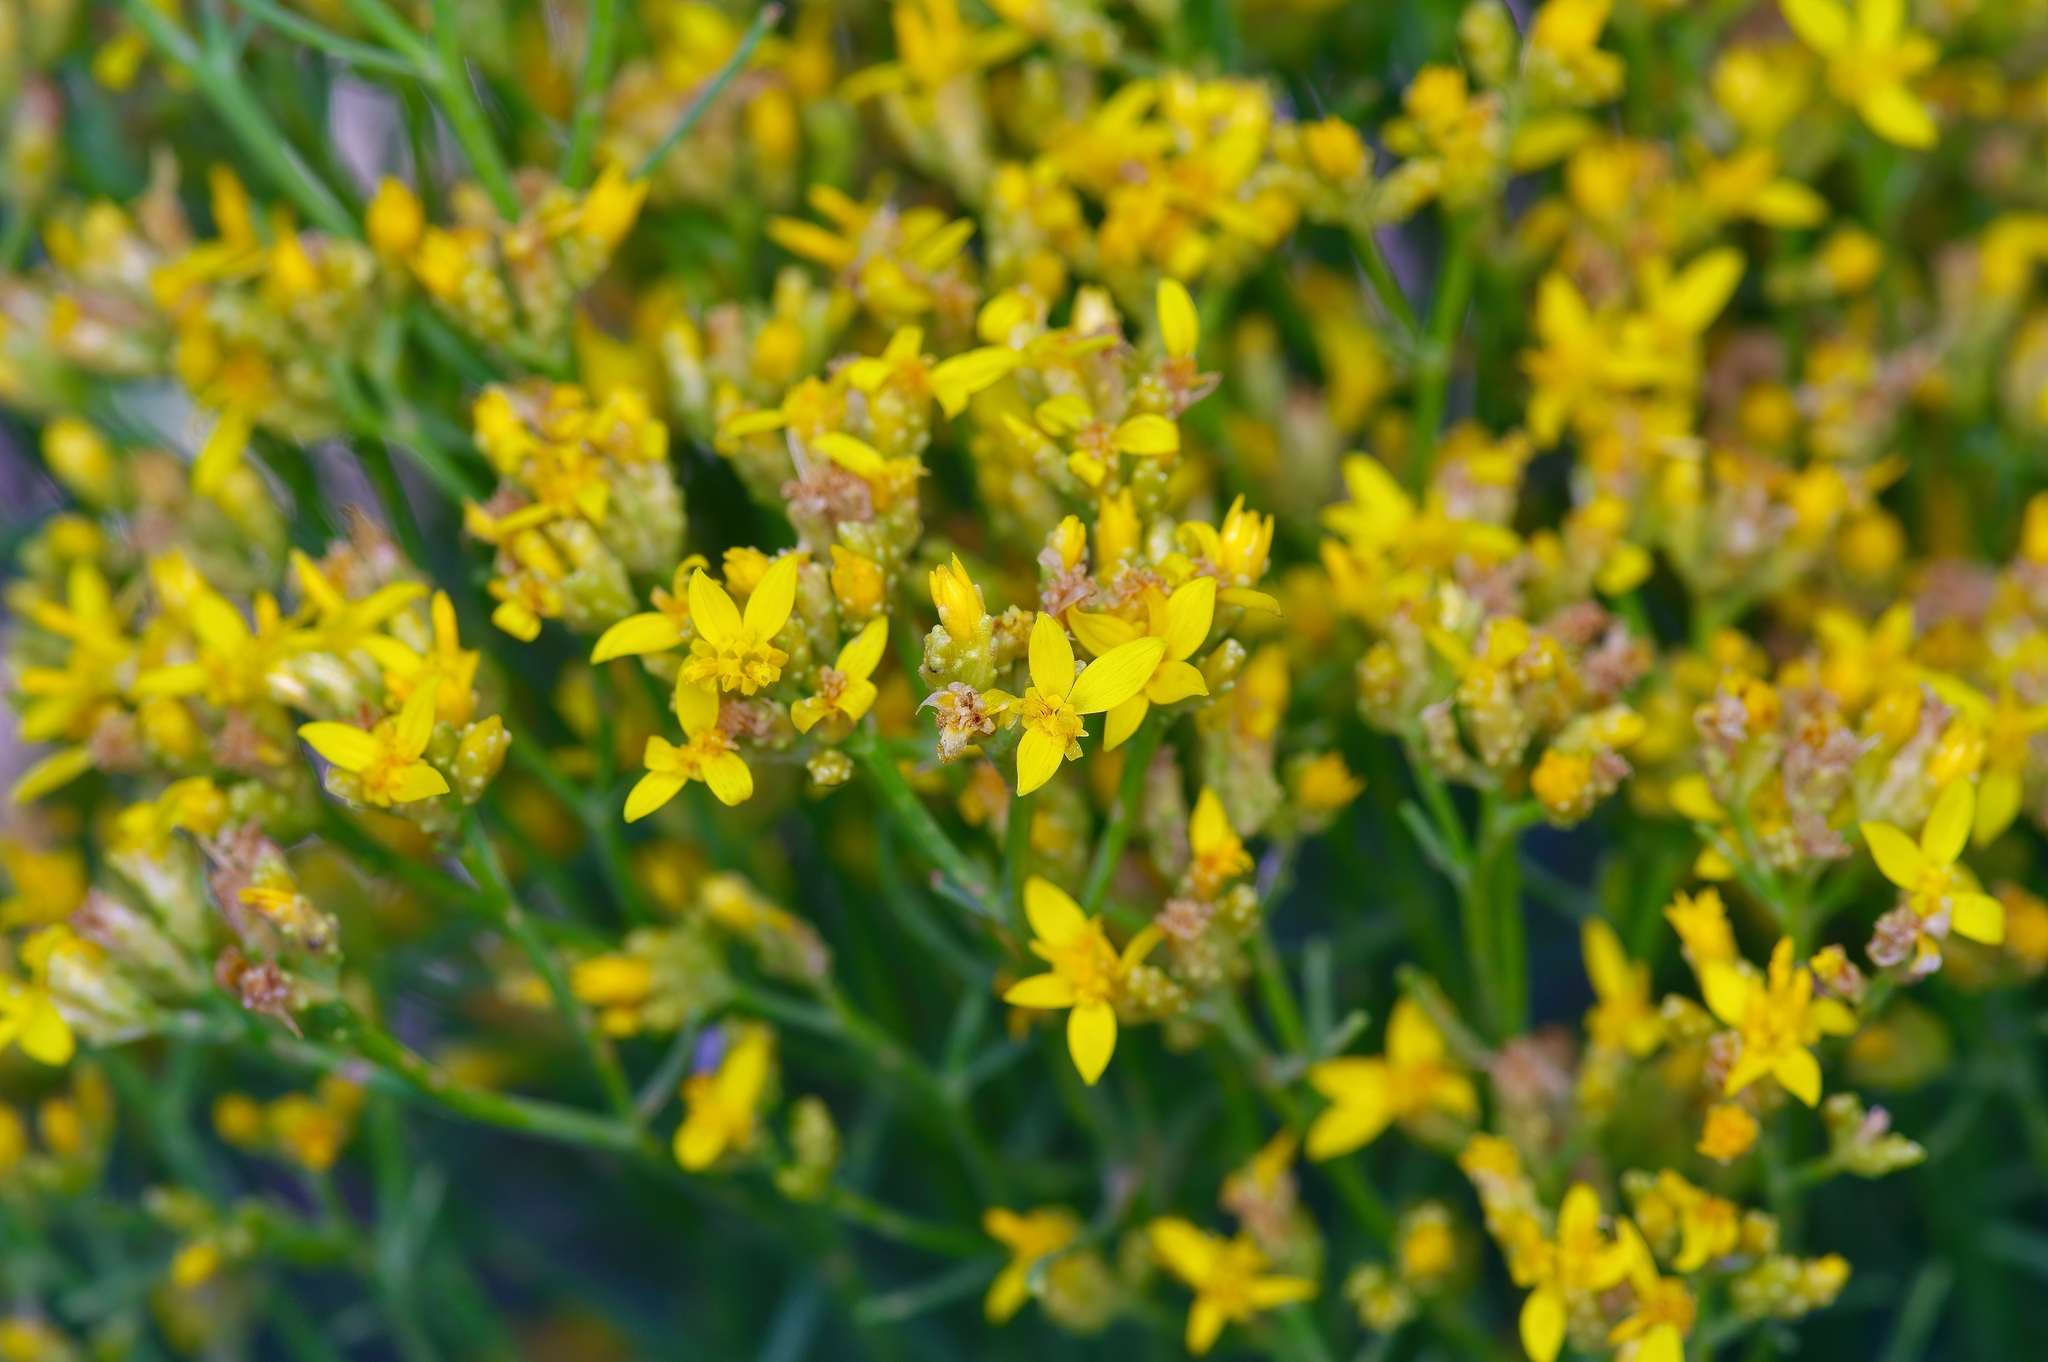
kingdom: Plantae
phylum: Tracheophyta
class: Magnoliopsida
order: Asterales
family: Asteraceae
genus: Gutierrezia
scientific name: Gutierrezia sarothrae
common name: Broom snakeweed
